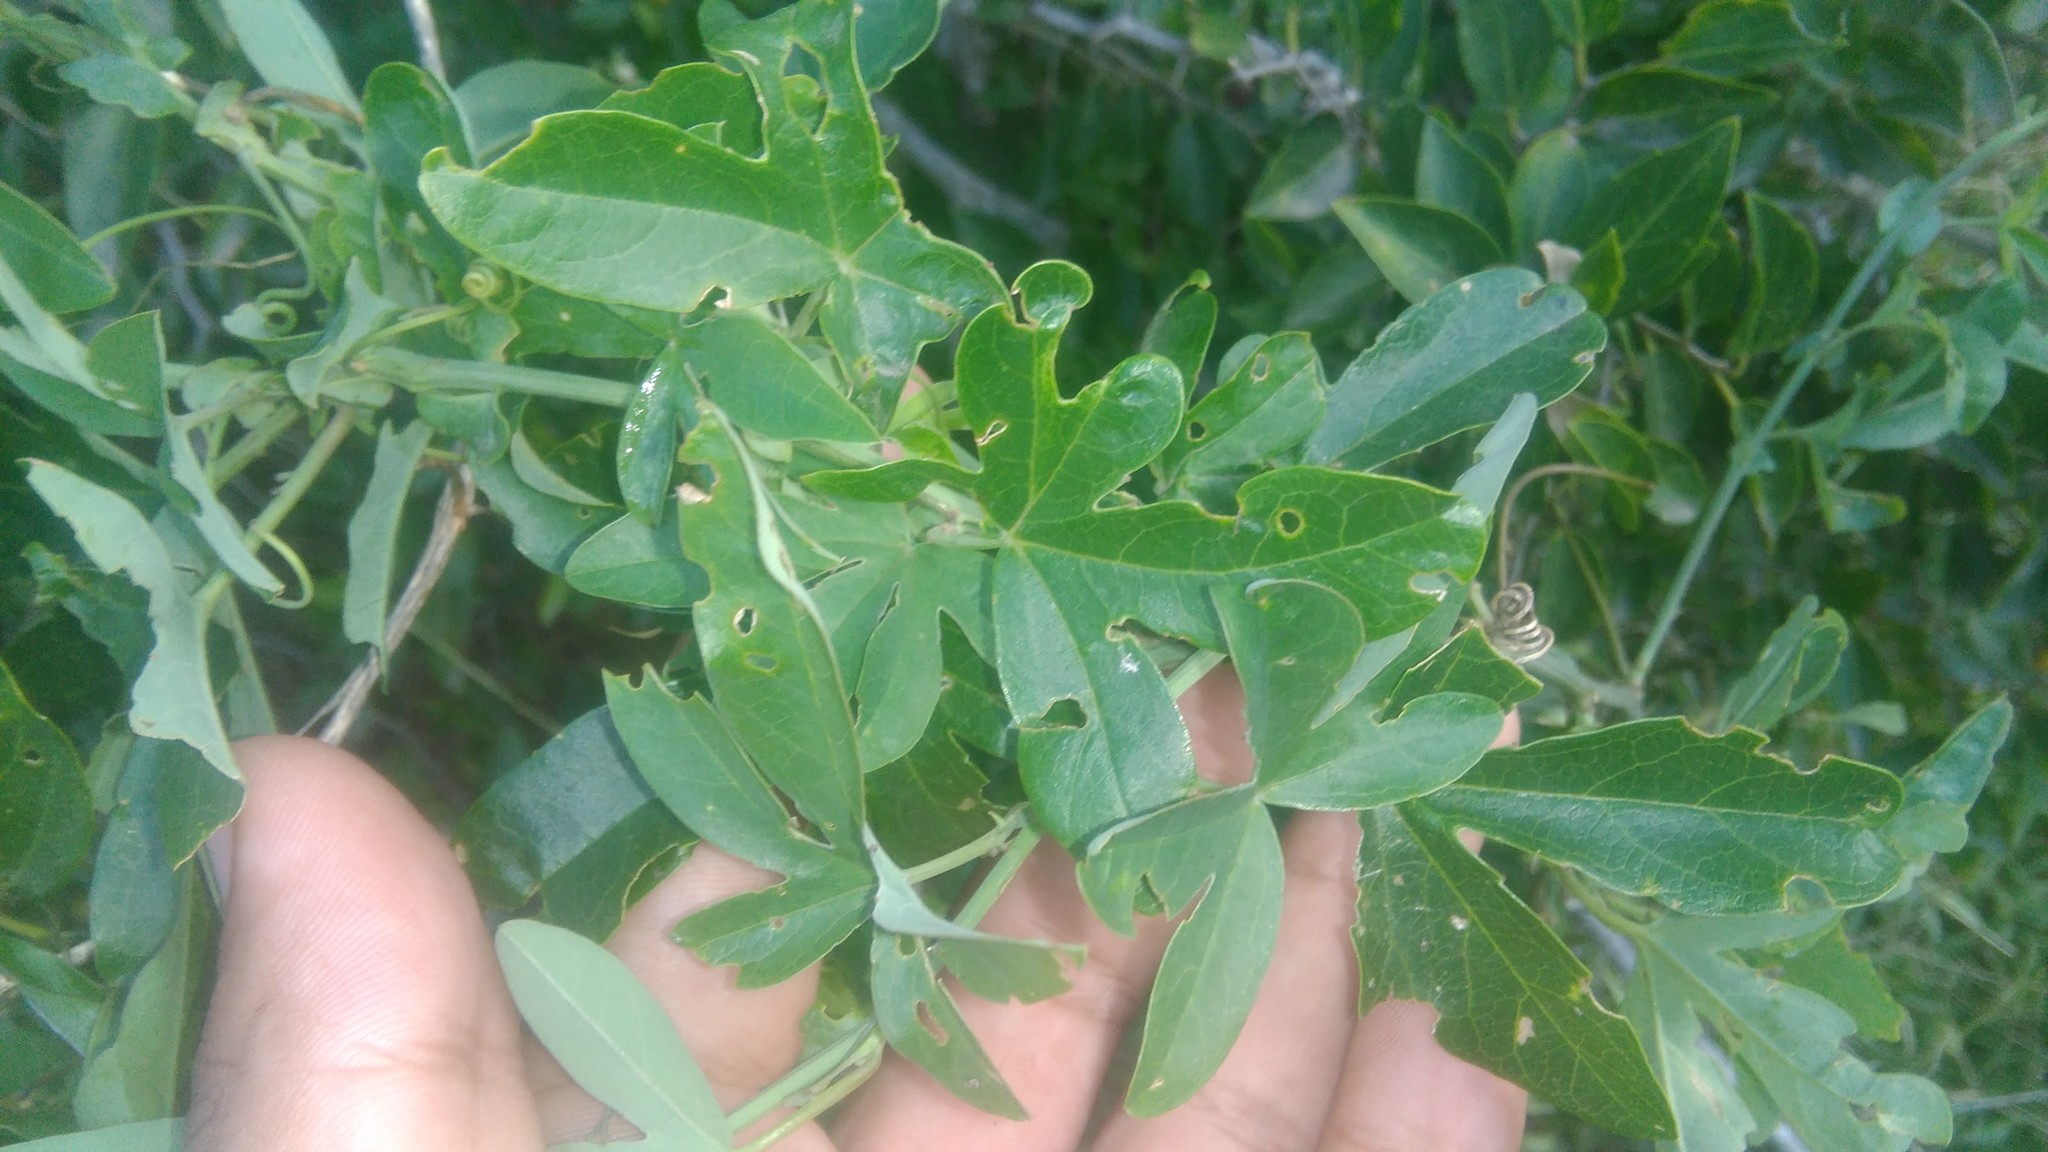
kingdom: Plantae
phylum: Tracheophyta
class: Magnoliopsida
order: Malpighiales
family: Passifloraceae
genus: Passiflora
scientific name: Passiflora caerulea
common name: Blue passionflower
